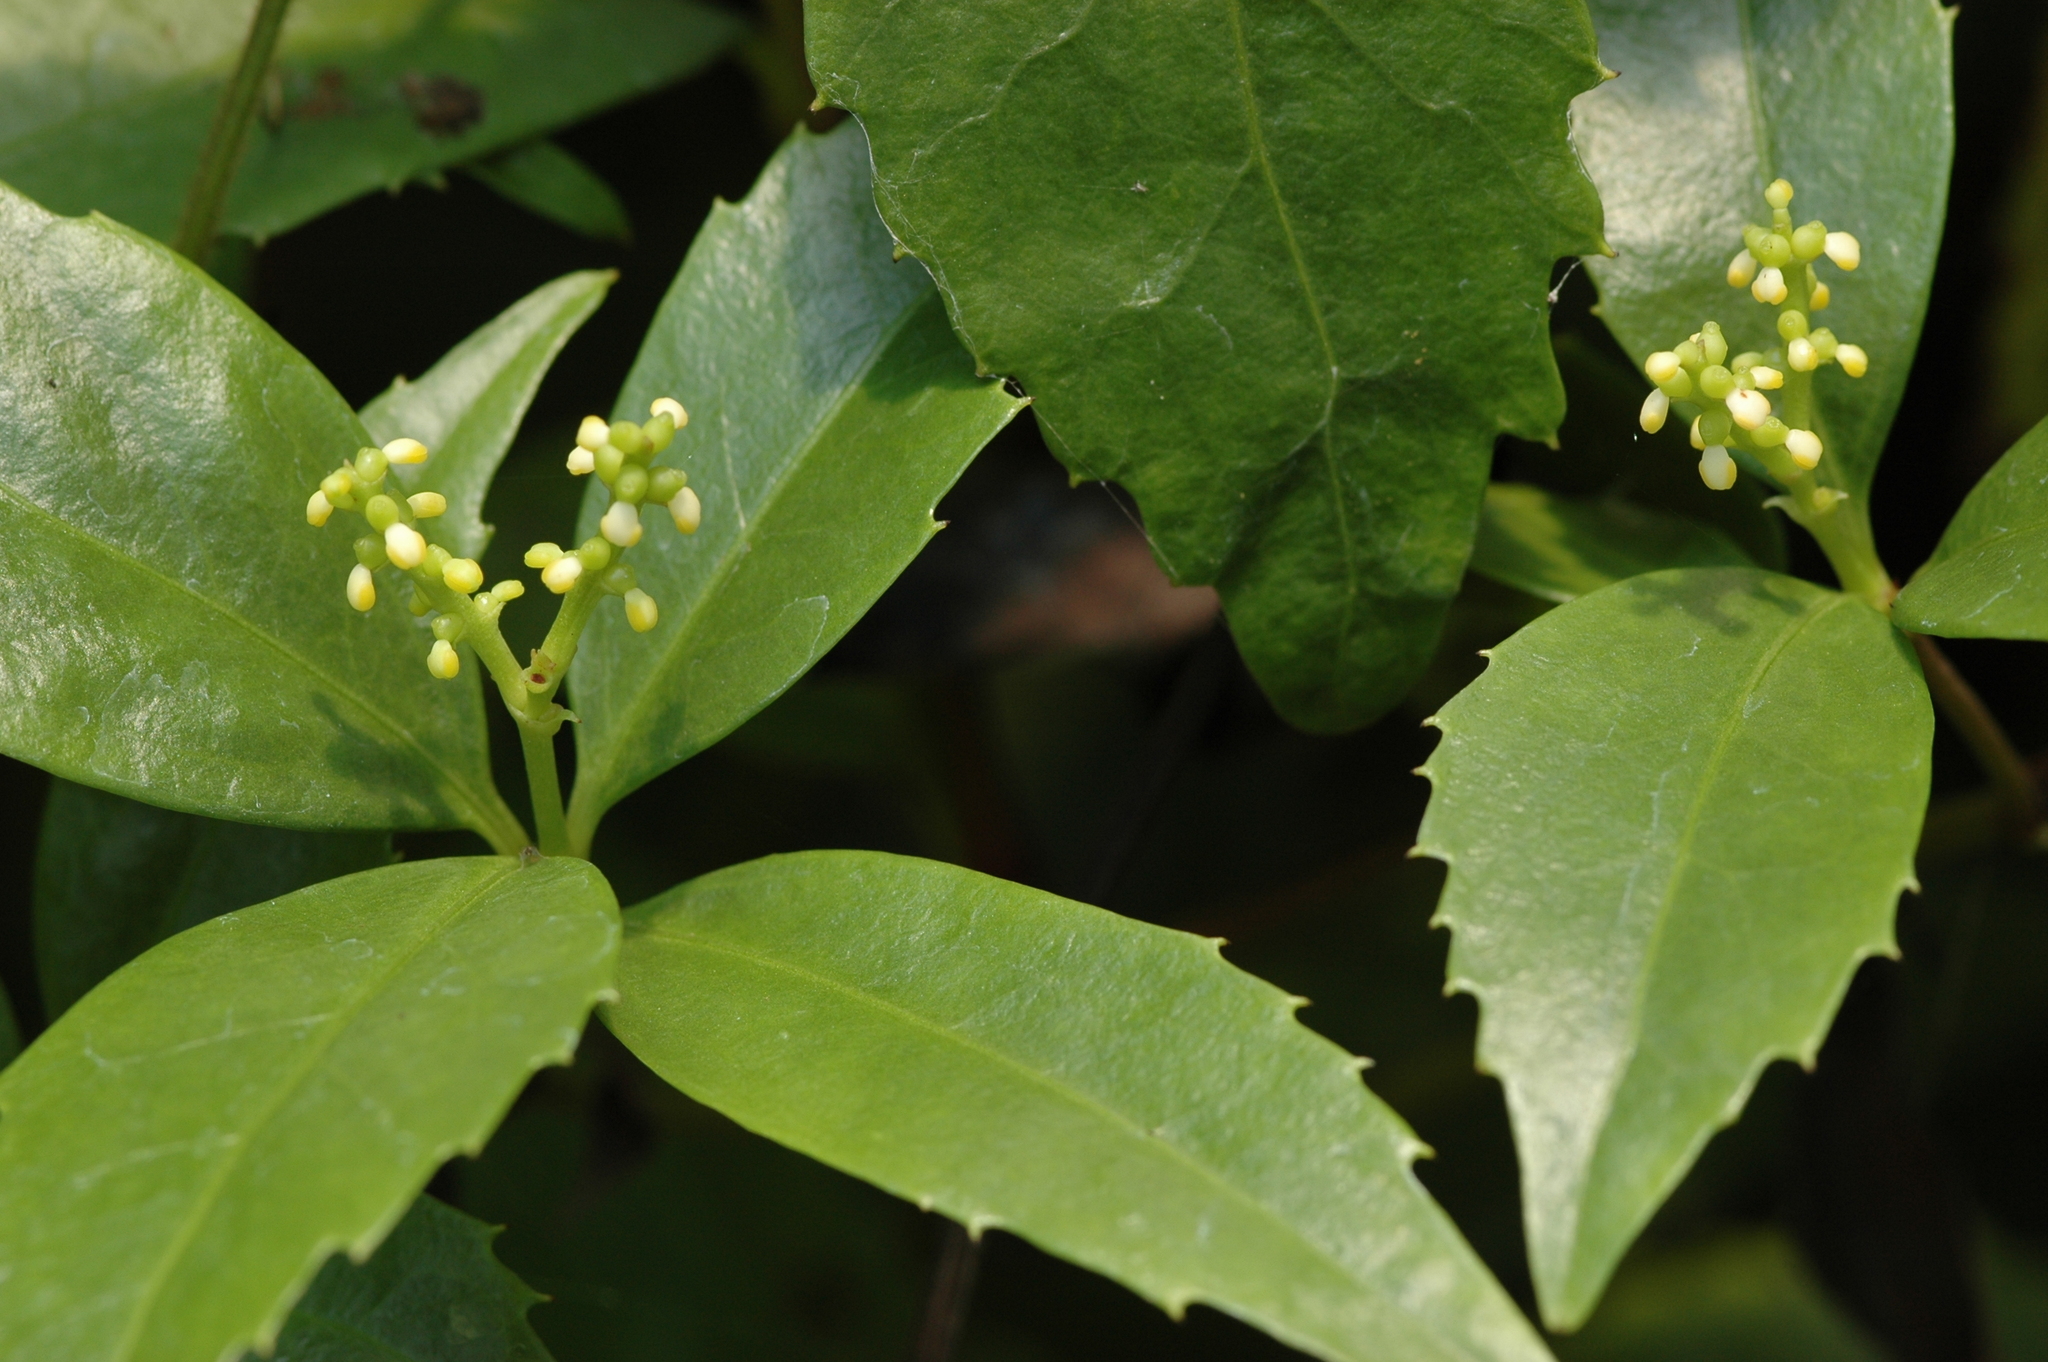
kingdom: Plantae
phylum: Tracheophyta
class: Magnoliopsida
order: Chloranthales
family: Chloranthaceae
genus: Sarcandra
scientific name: Sarcandra glabra
